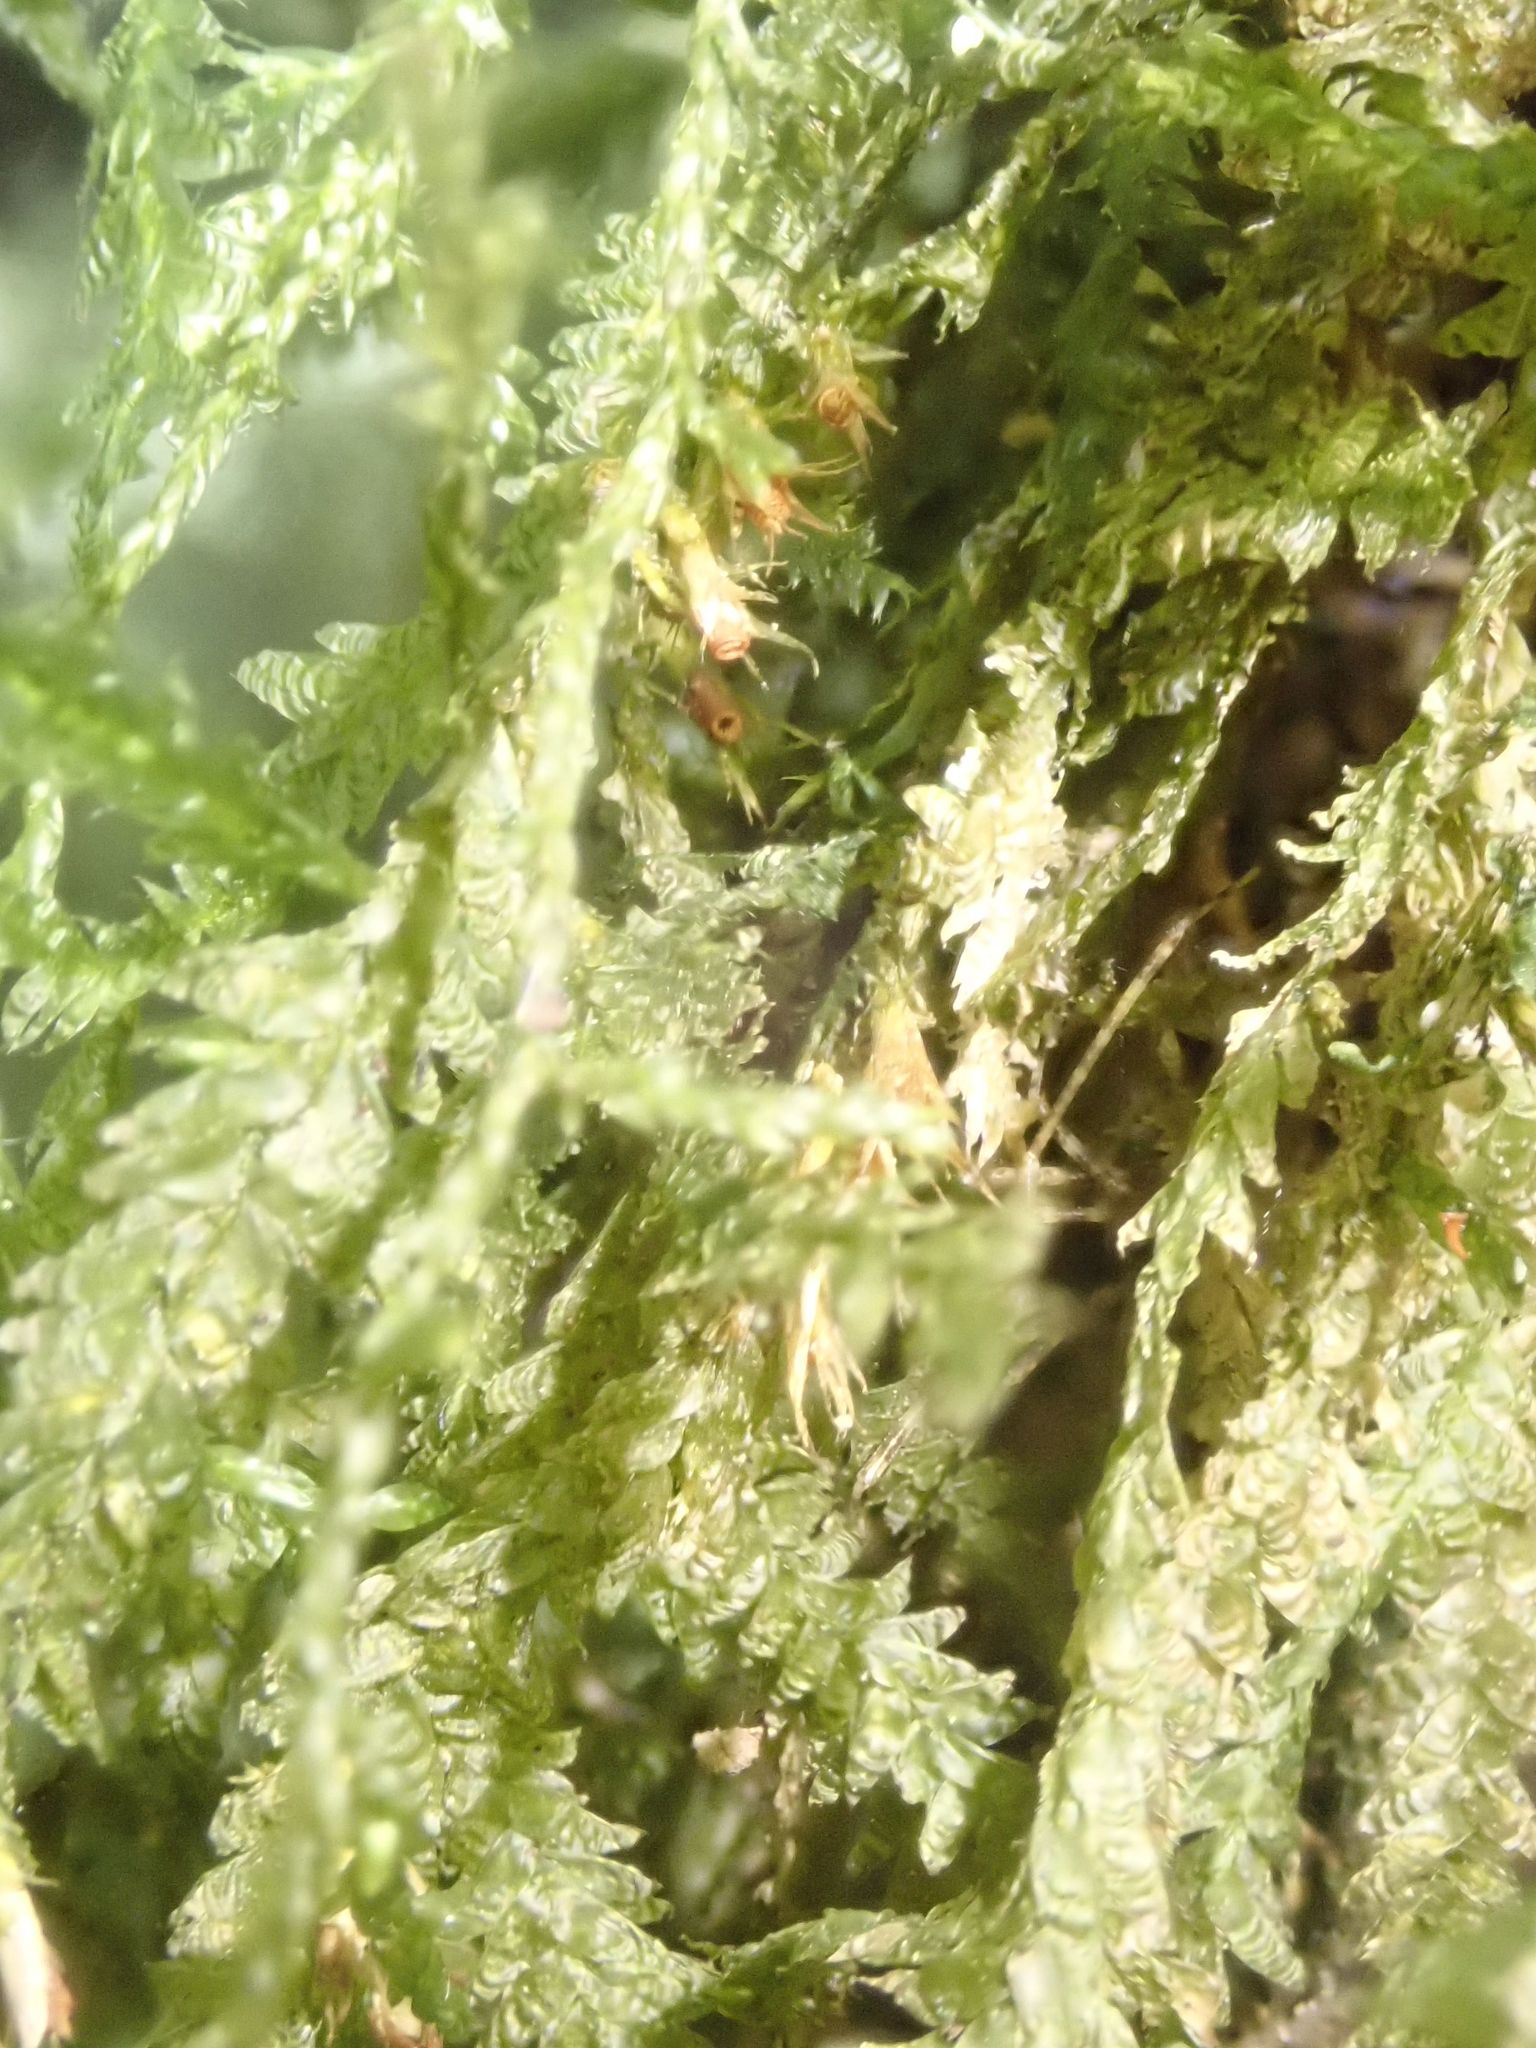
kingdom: Plantae
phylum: Bryophyta
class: Bryopsida
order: Hypnales
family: Neckeraceae
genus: Alleniella
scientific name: Alleniella hymenodonta
